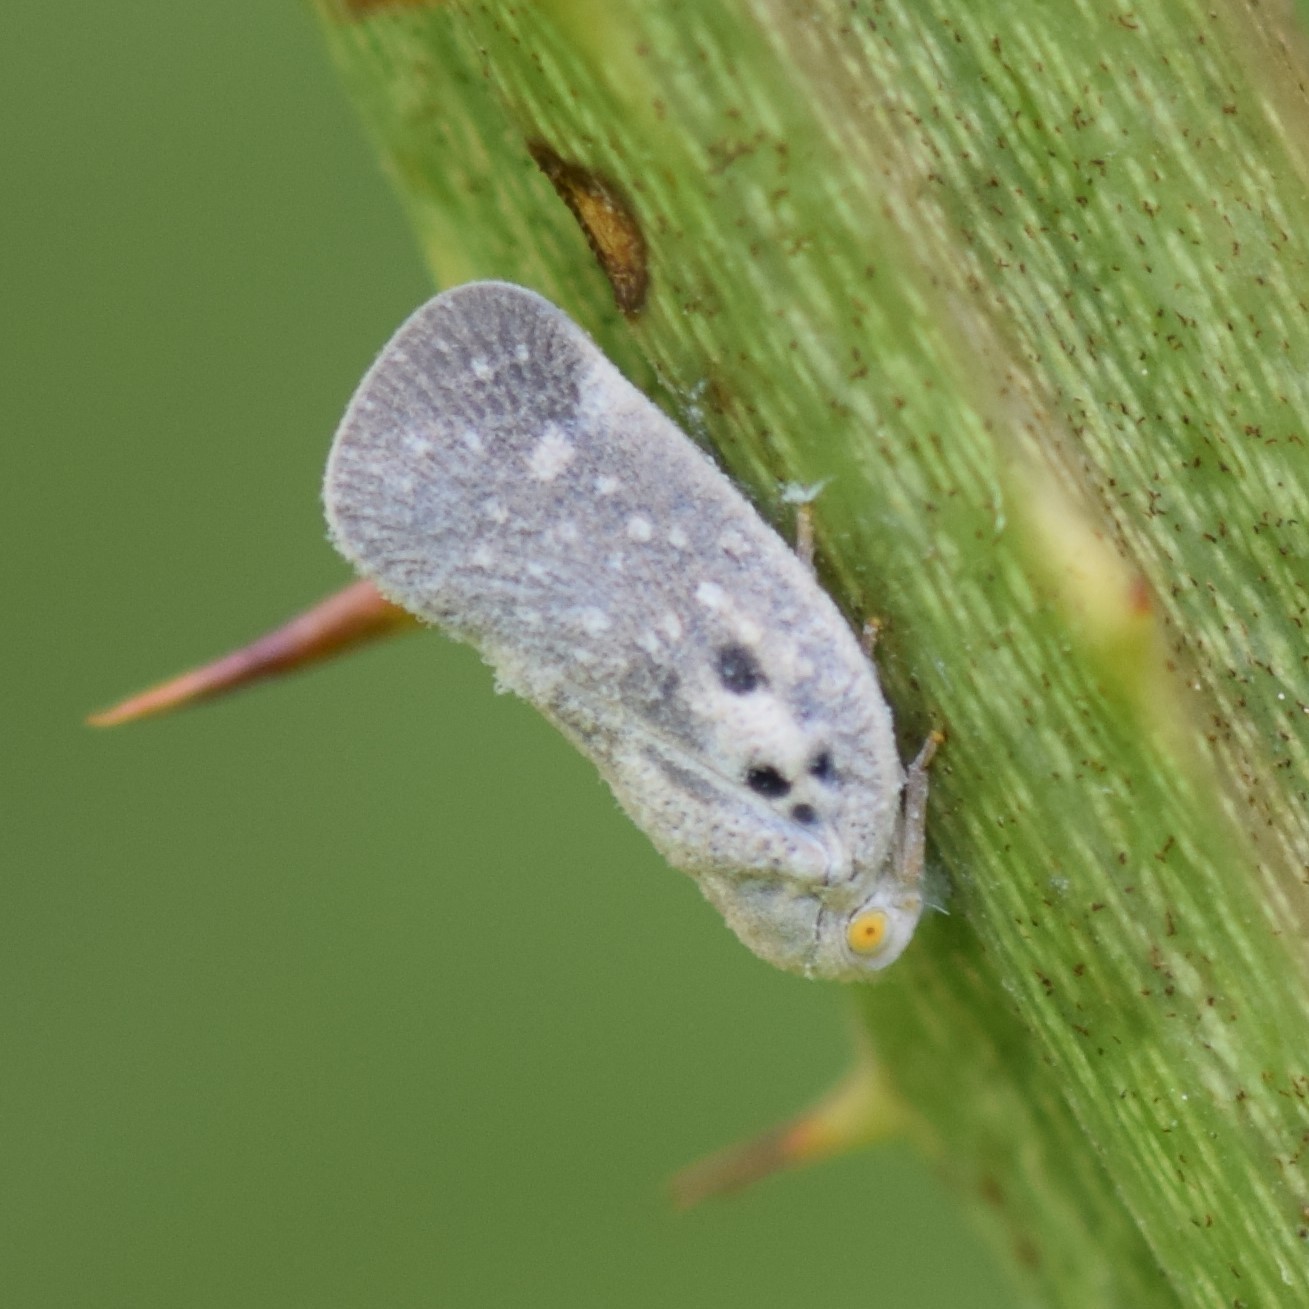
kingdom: Animalia
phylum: Arthropoda
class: Insecta
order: Hemiptera
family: Flatidae
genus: Metcalfa
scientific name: Metcalfa pruinosa
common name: Citrus flatid planthopper
